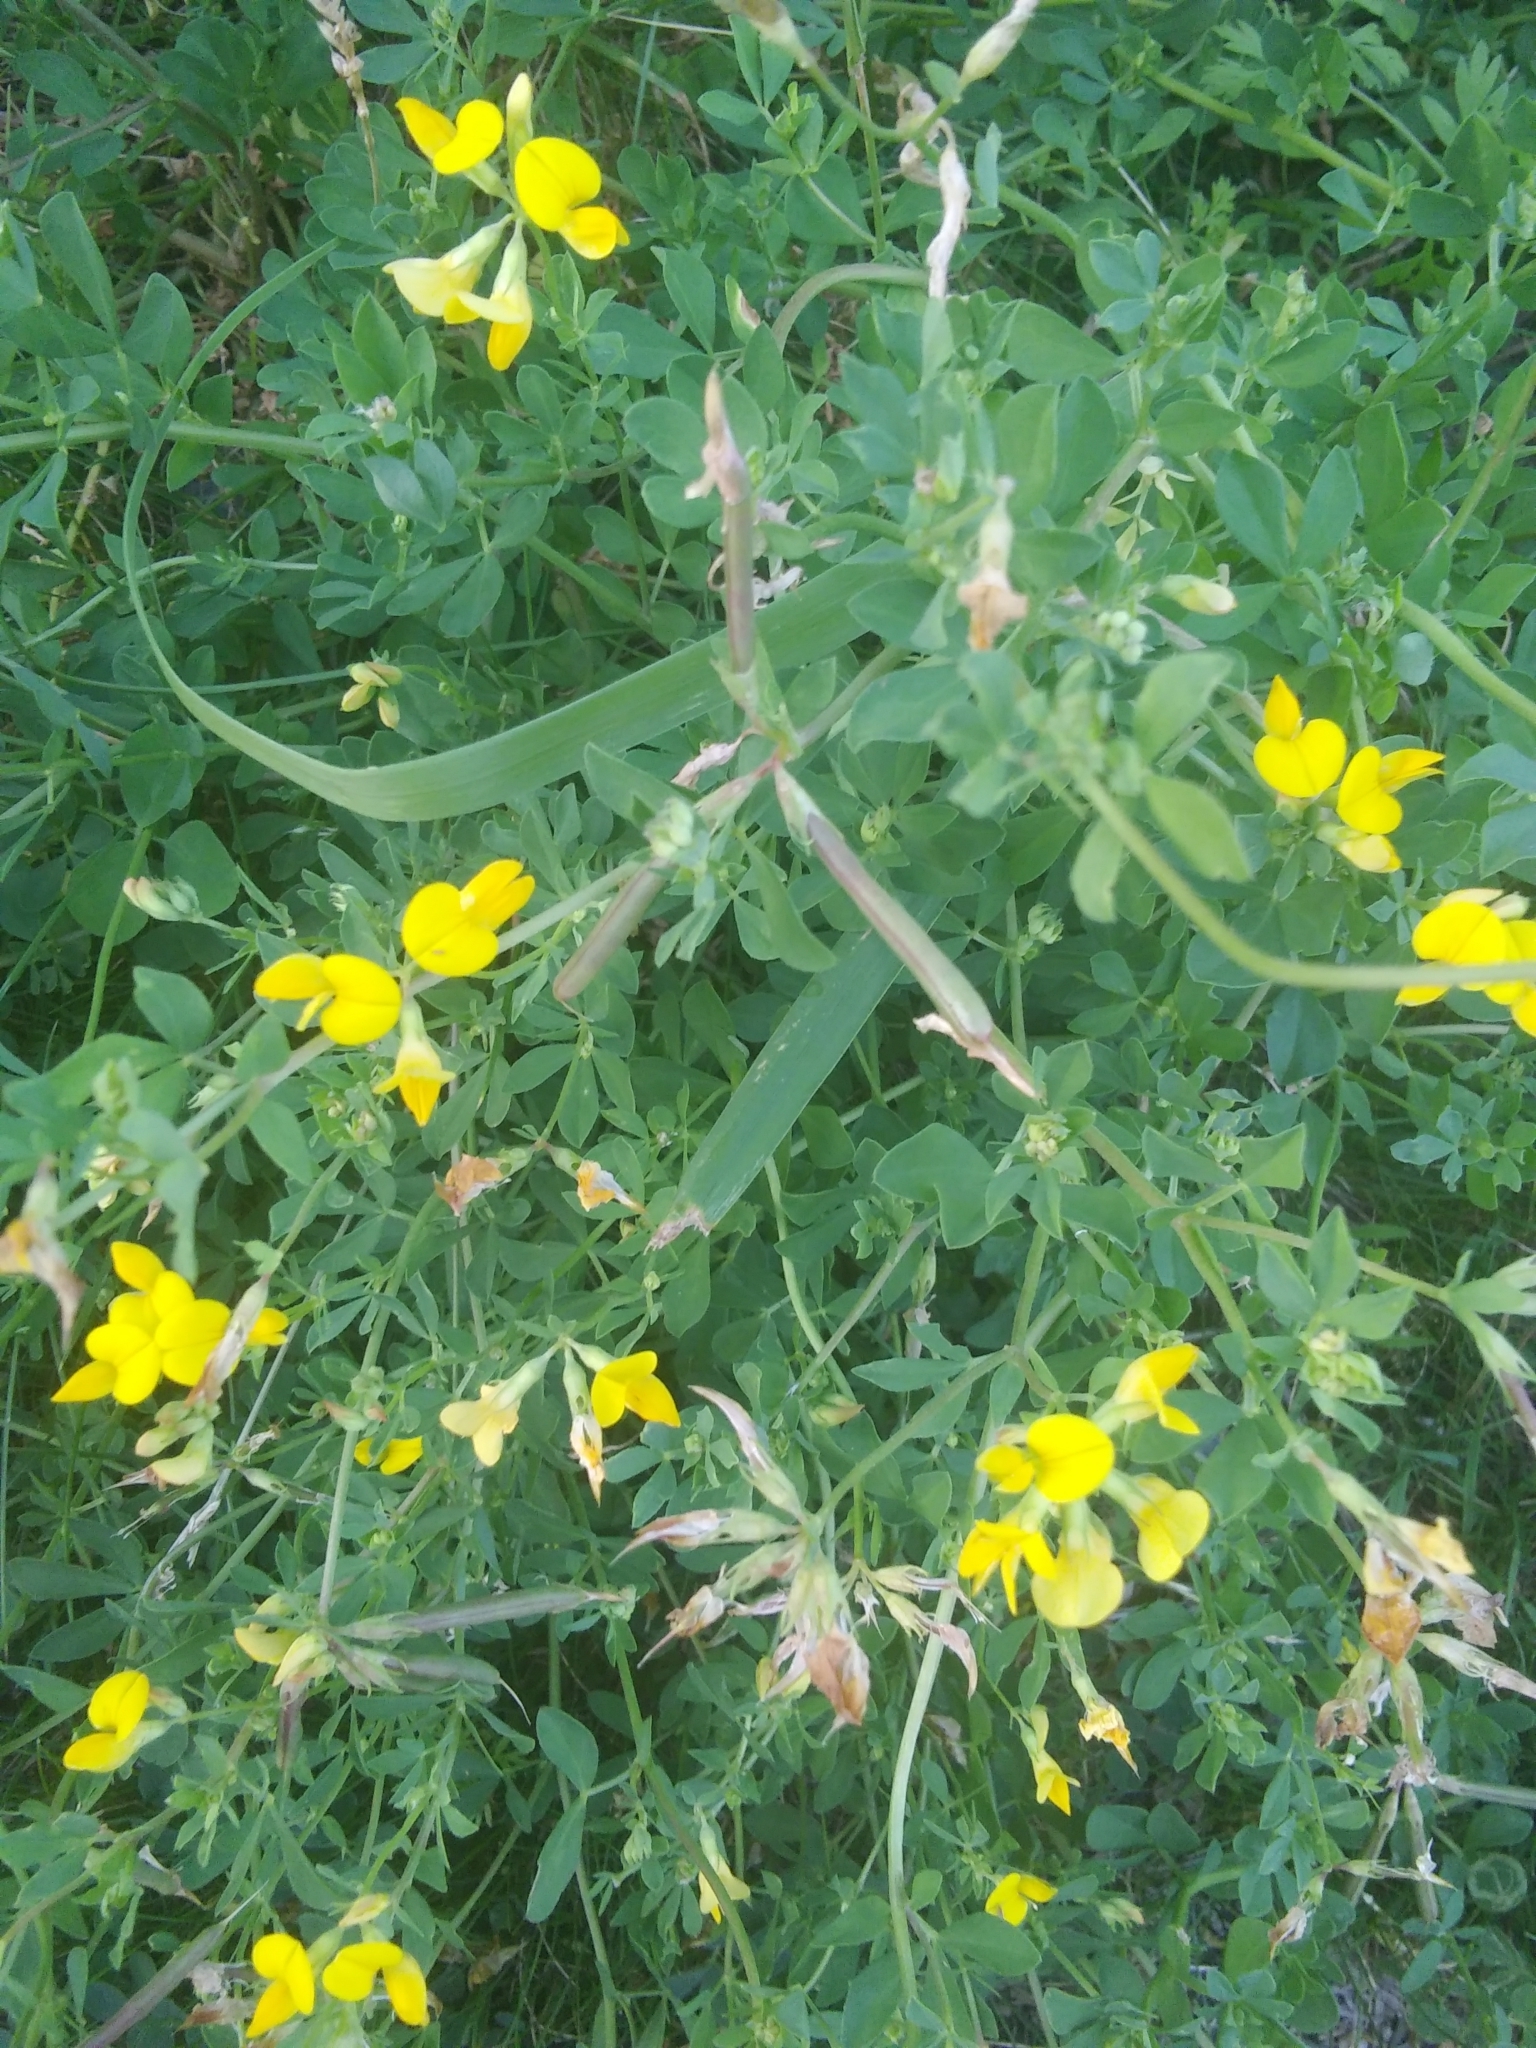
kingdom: Plantae
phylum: Tracheophyta
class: Magnoliopsida
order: Fabales
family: Fabaceae
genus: Lotus
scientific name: Lotus corniculatus
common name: Common bird's-foot-trefoil
